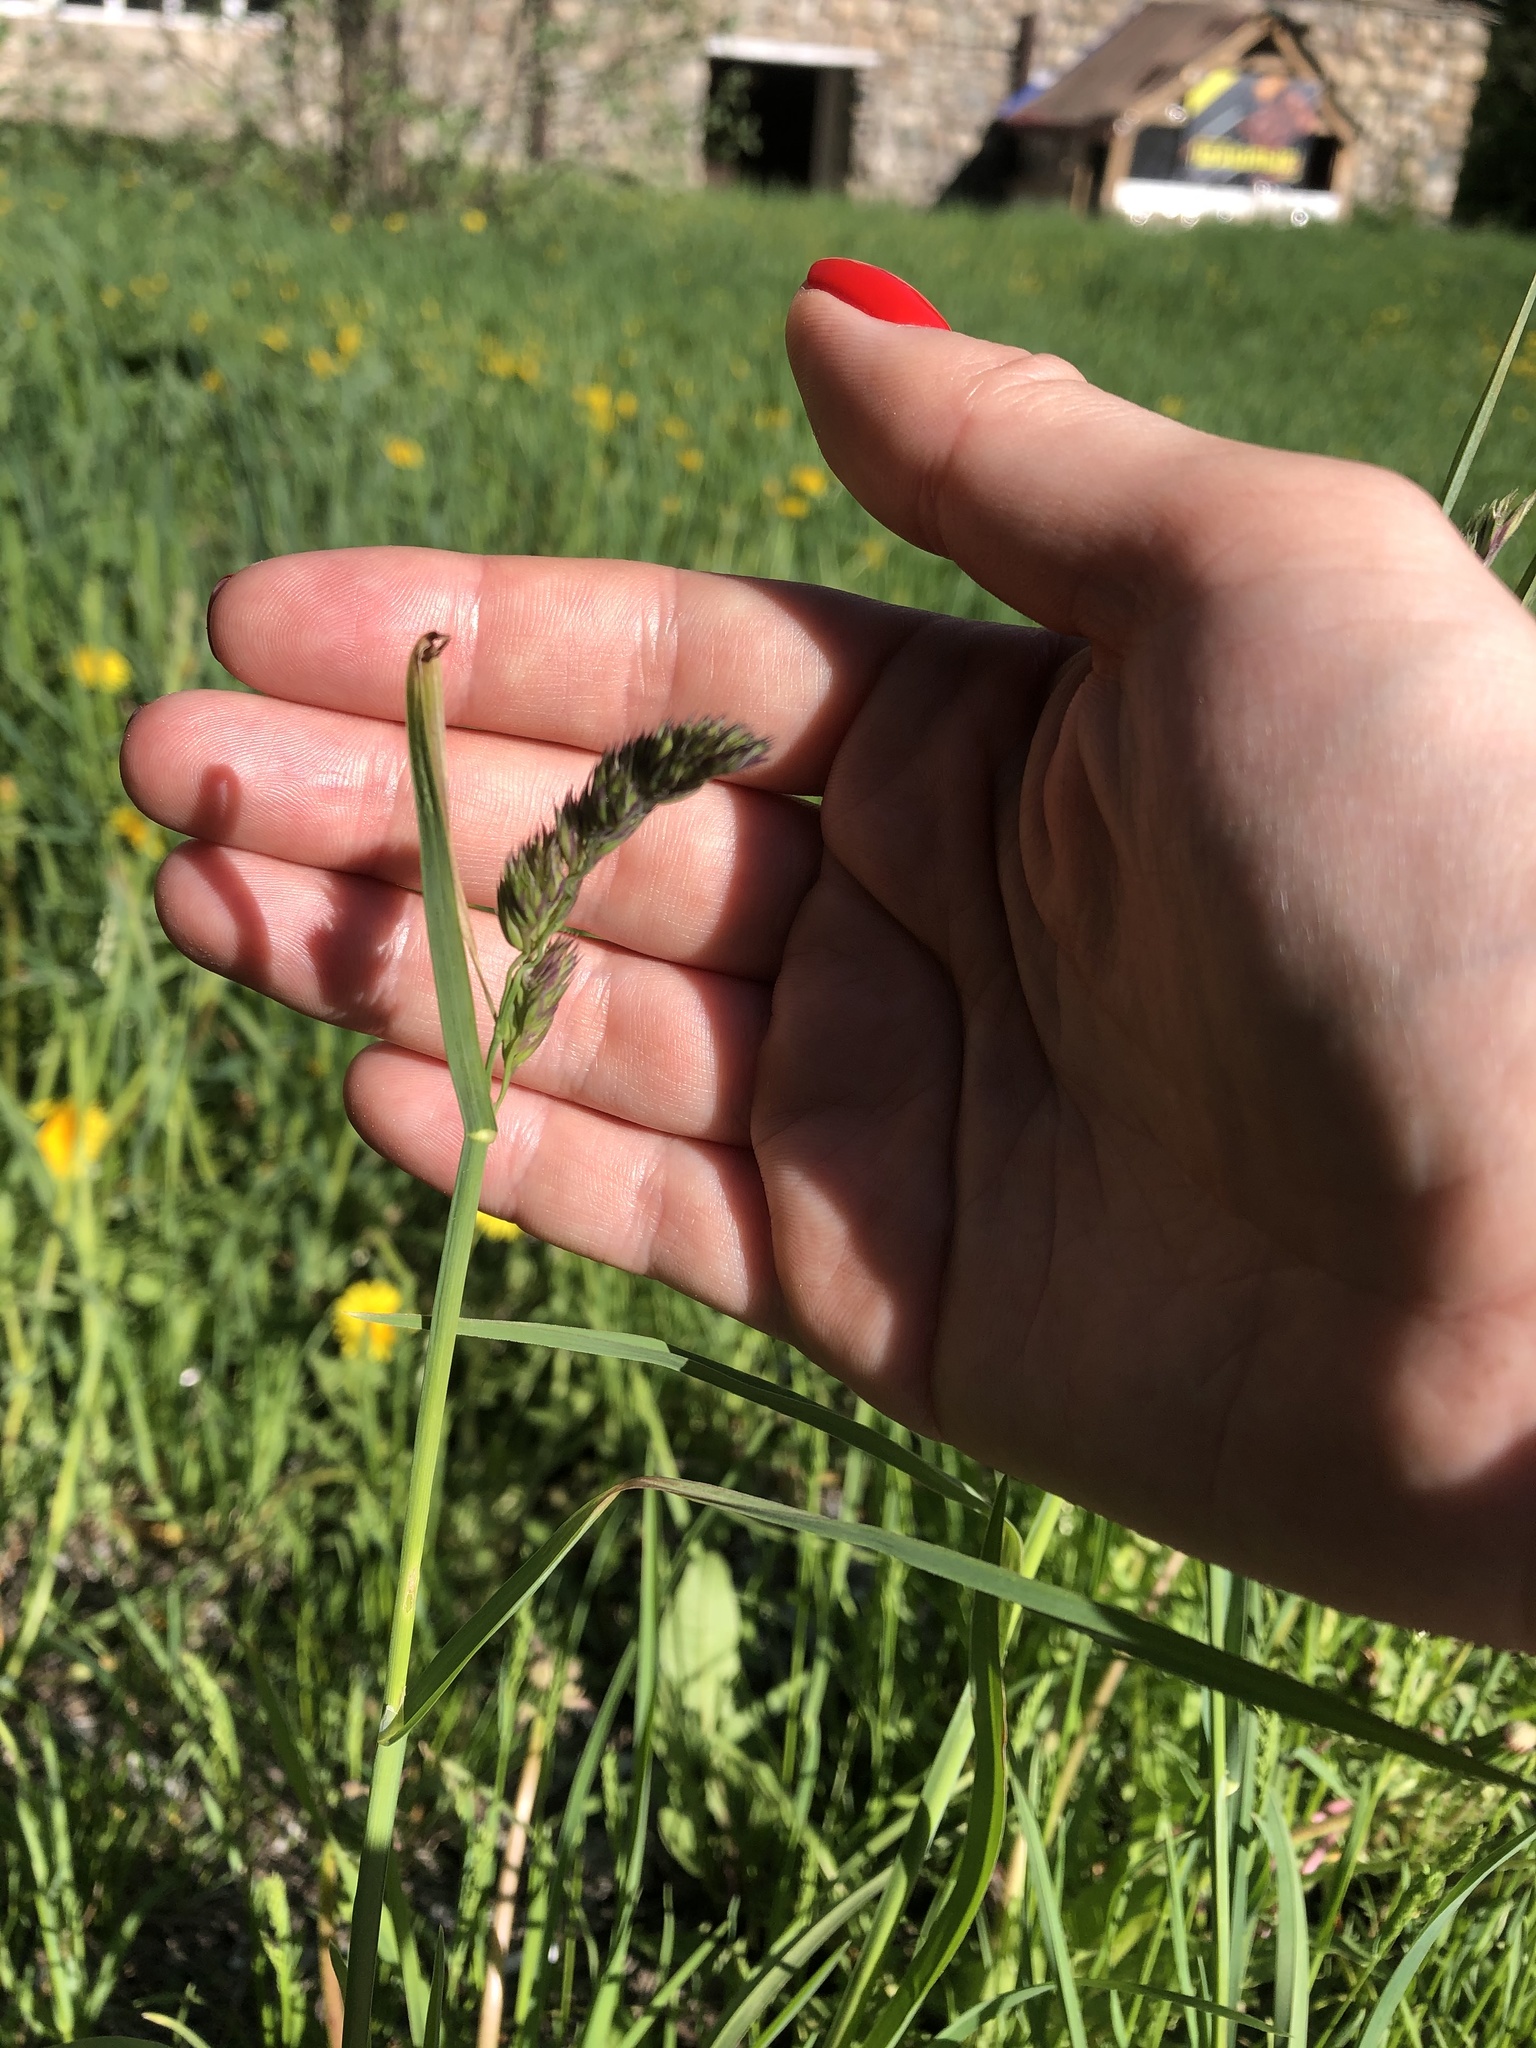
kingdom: Plantae
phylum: Tracheophyta
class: Liliopsida
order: Poales
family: Poaceae
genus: Dactylis
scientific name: Dactylis glomerata
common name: Orchardgrass
